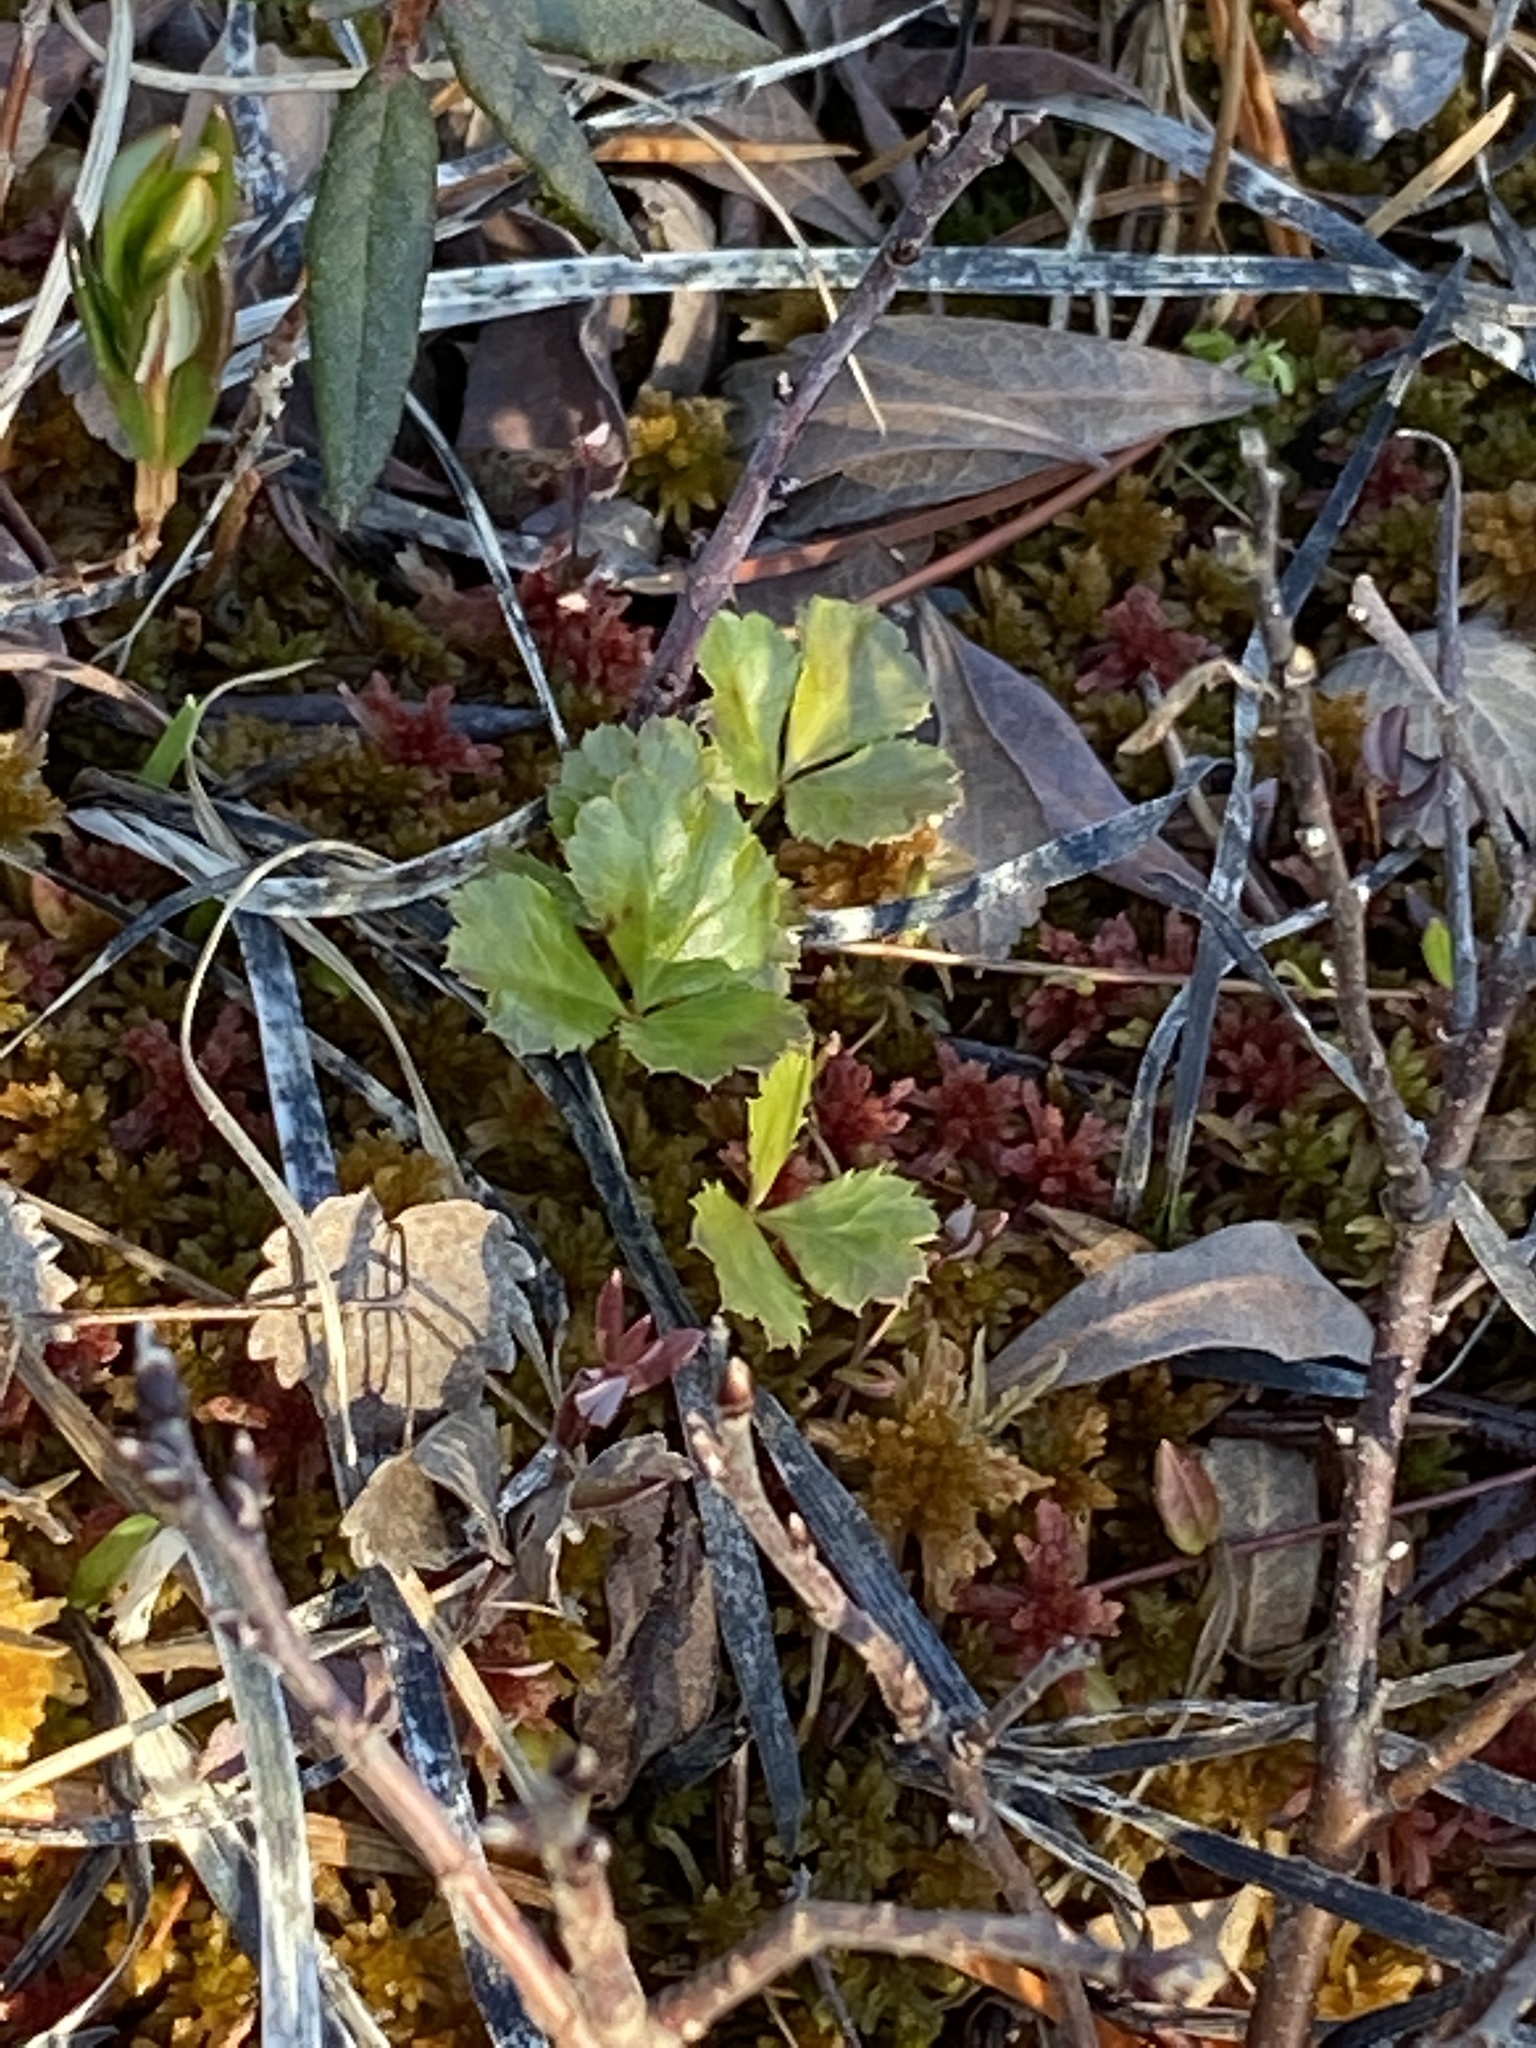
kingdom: Plantae
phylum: Tracheophyta
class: Magnoliopsida
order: Ranunculales
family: Ranunculaceae
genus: Coptis
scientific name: Coptis trifolia
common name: Canker-root
